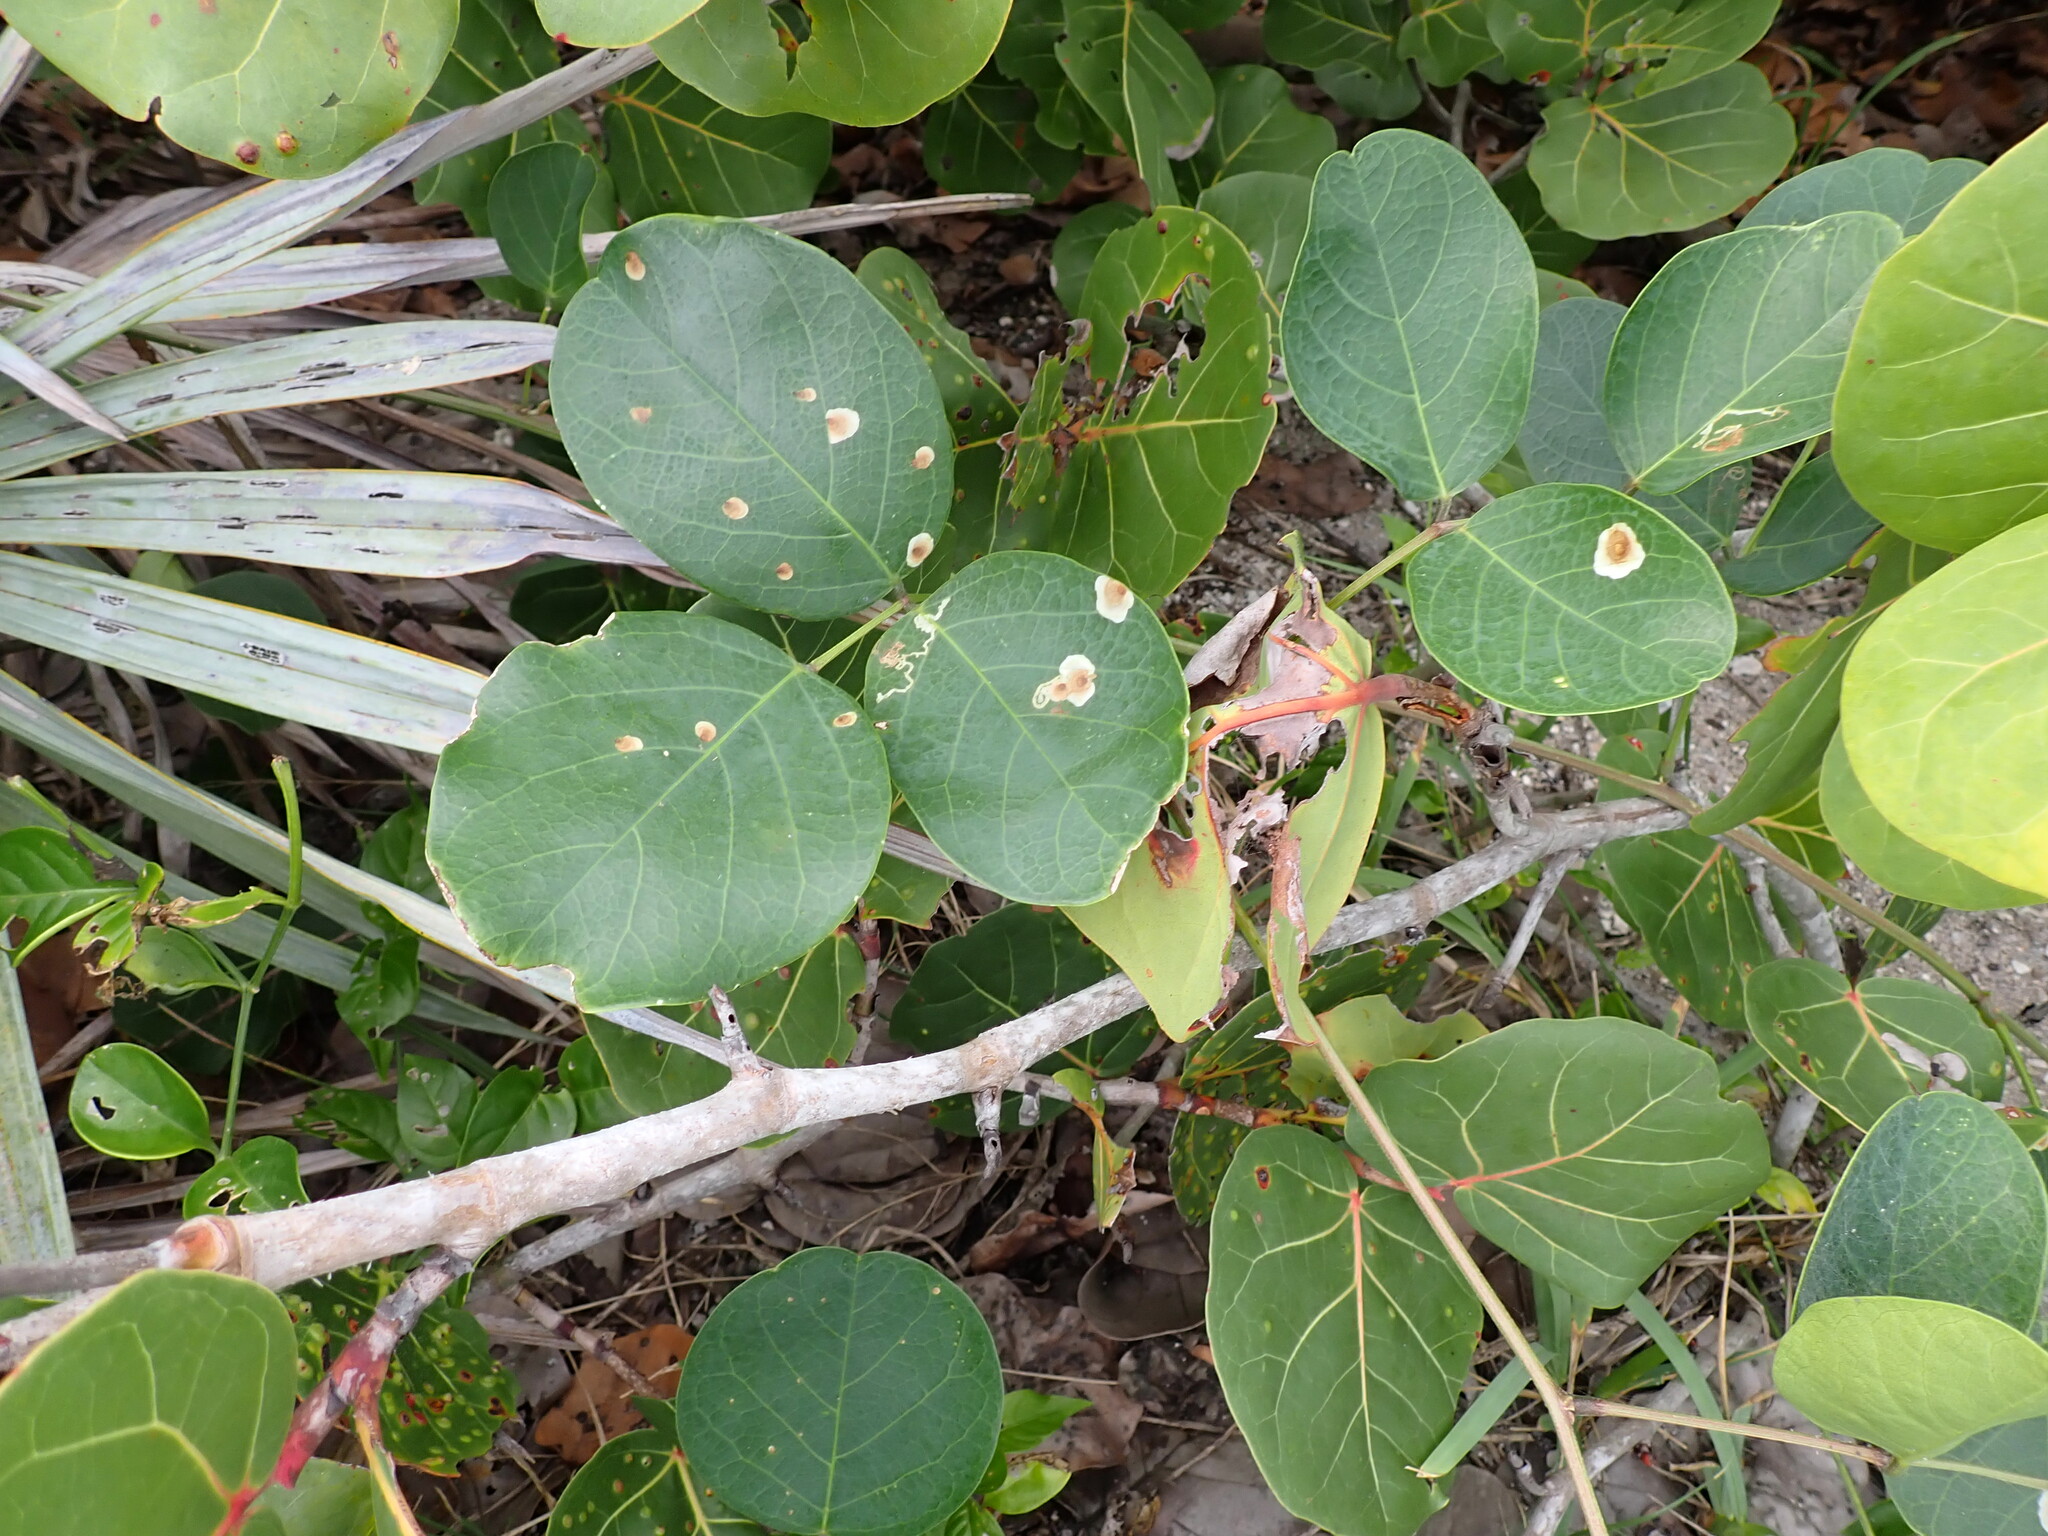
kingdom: Plantae
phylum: Tracheophyta
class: Magnoliopsida
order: Fabales
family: Fabaceae
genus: Canavalia
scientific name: Canavalia rosea
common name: Beach-bean
